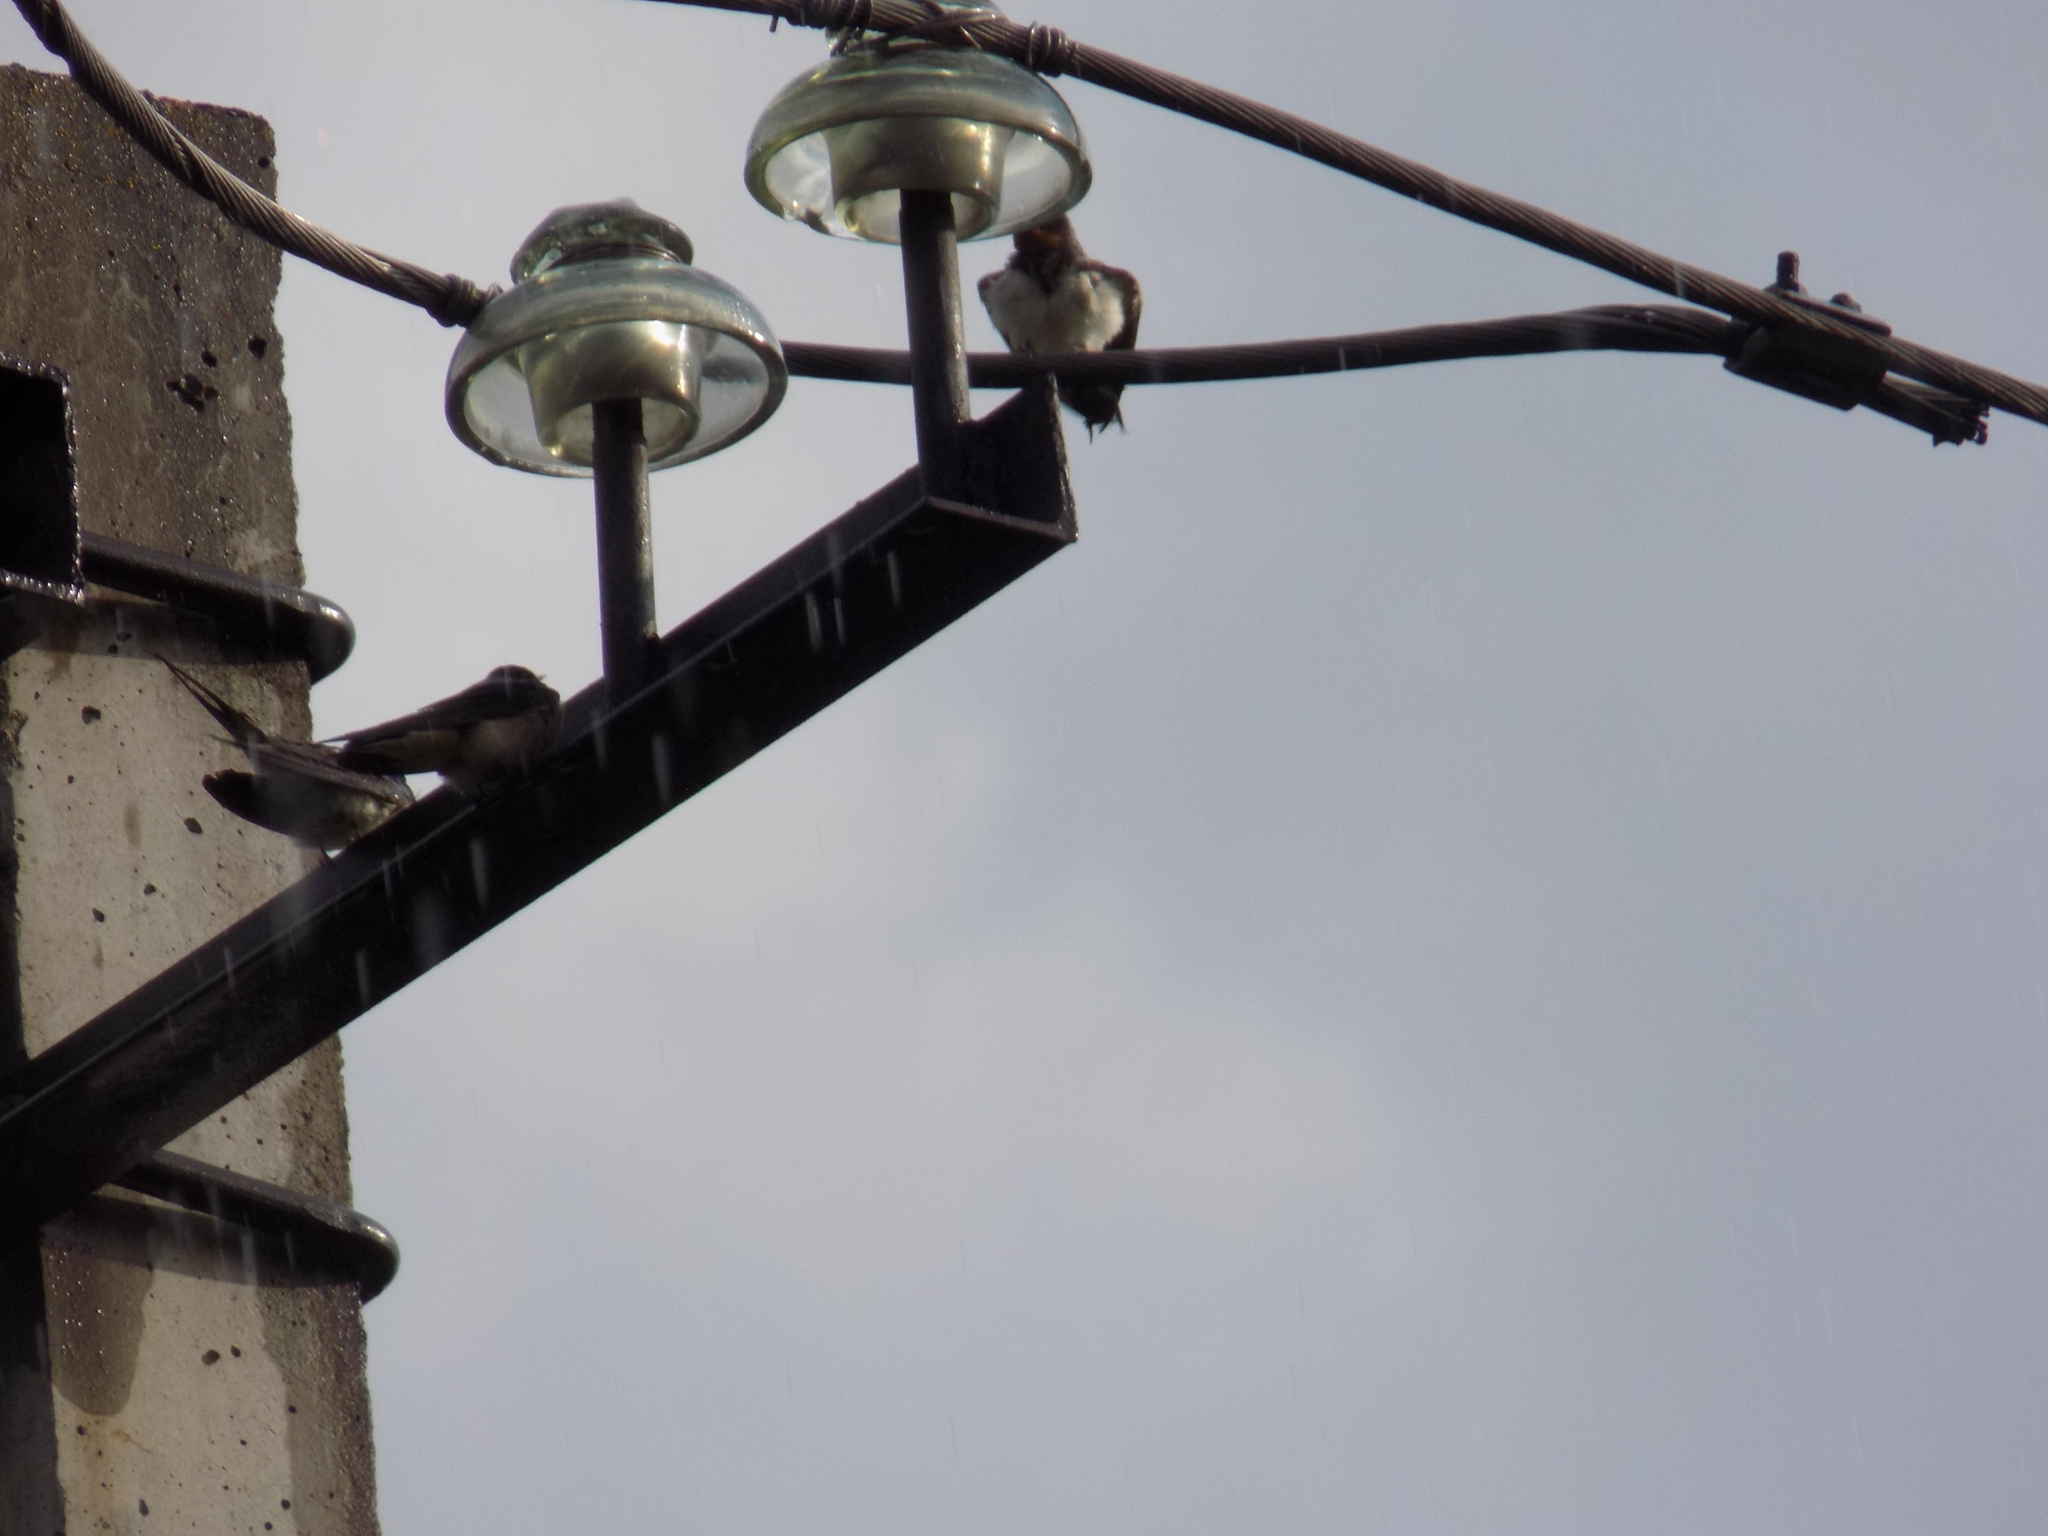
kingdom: Animalia
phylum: Chordata
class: Aves
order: Passeriformes
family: Hirundinidae
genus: Hirundo
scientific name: Hirundo rustica
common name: Barn swallow
